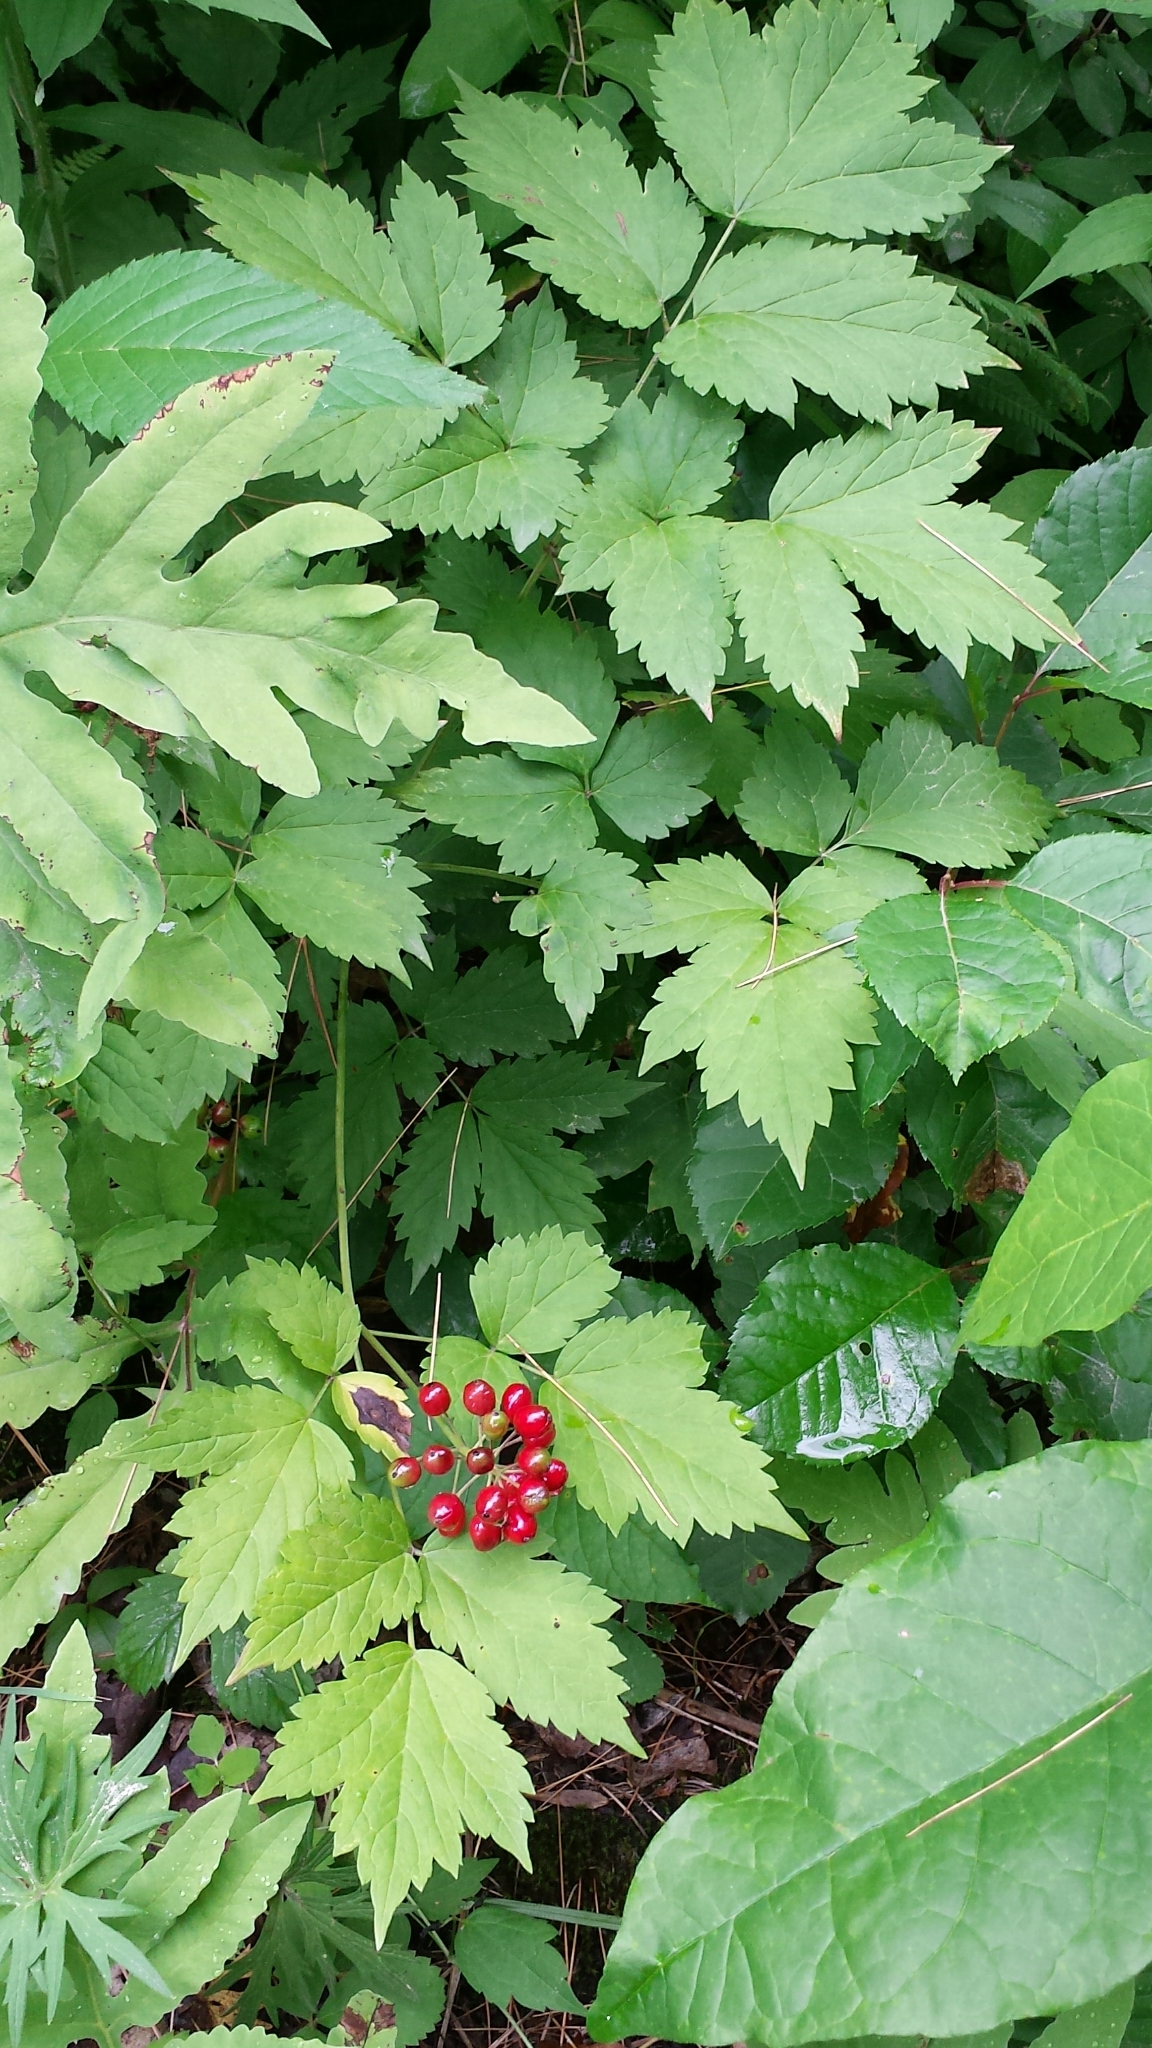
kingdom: Plantae
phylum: Tracheophyta
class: Magnoliopsida
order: Ranunculales
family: Ranunculaceae
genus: Actaea
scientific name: Actaea rubra
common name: Red baneberry
